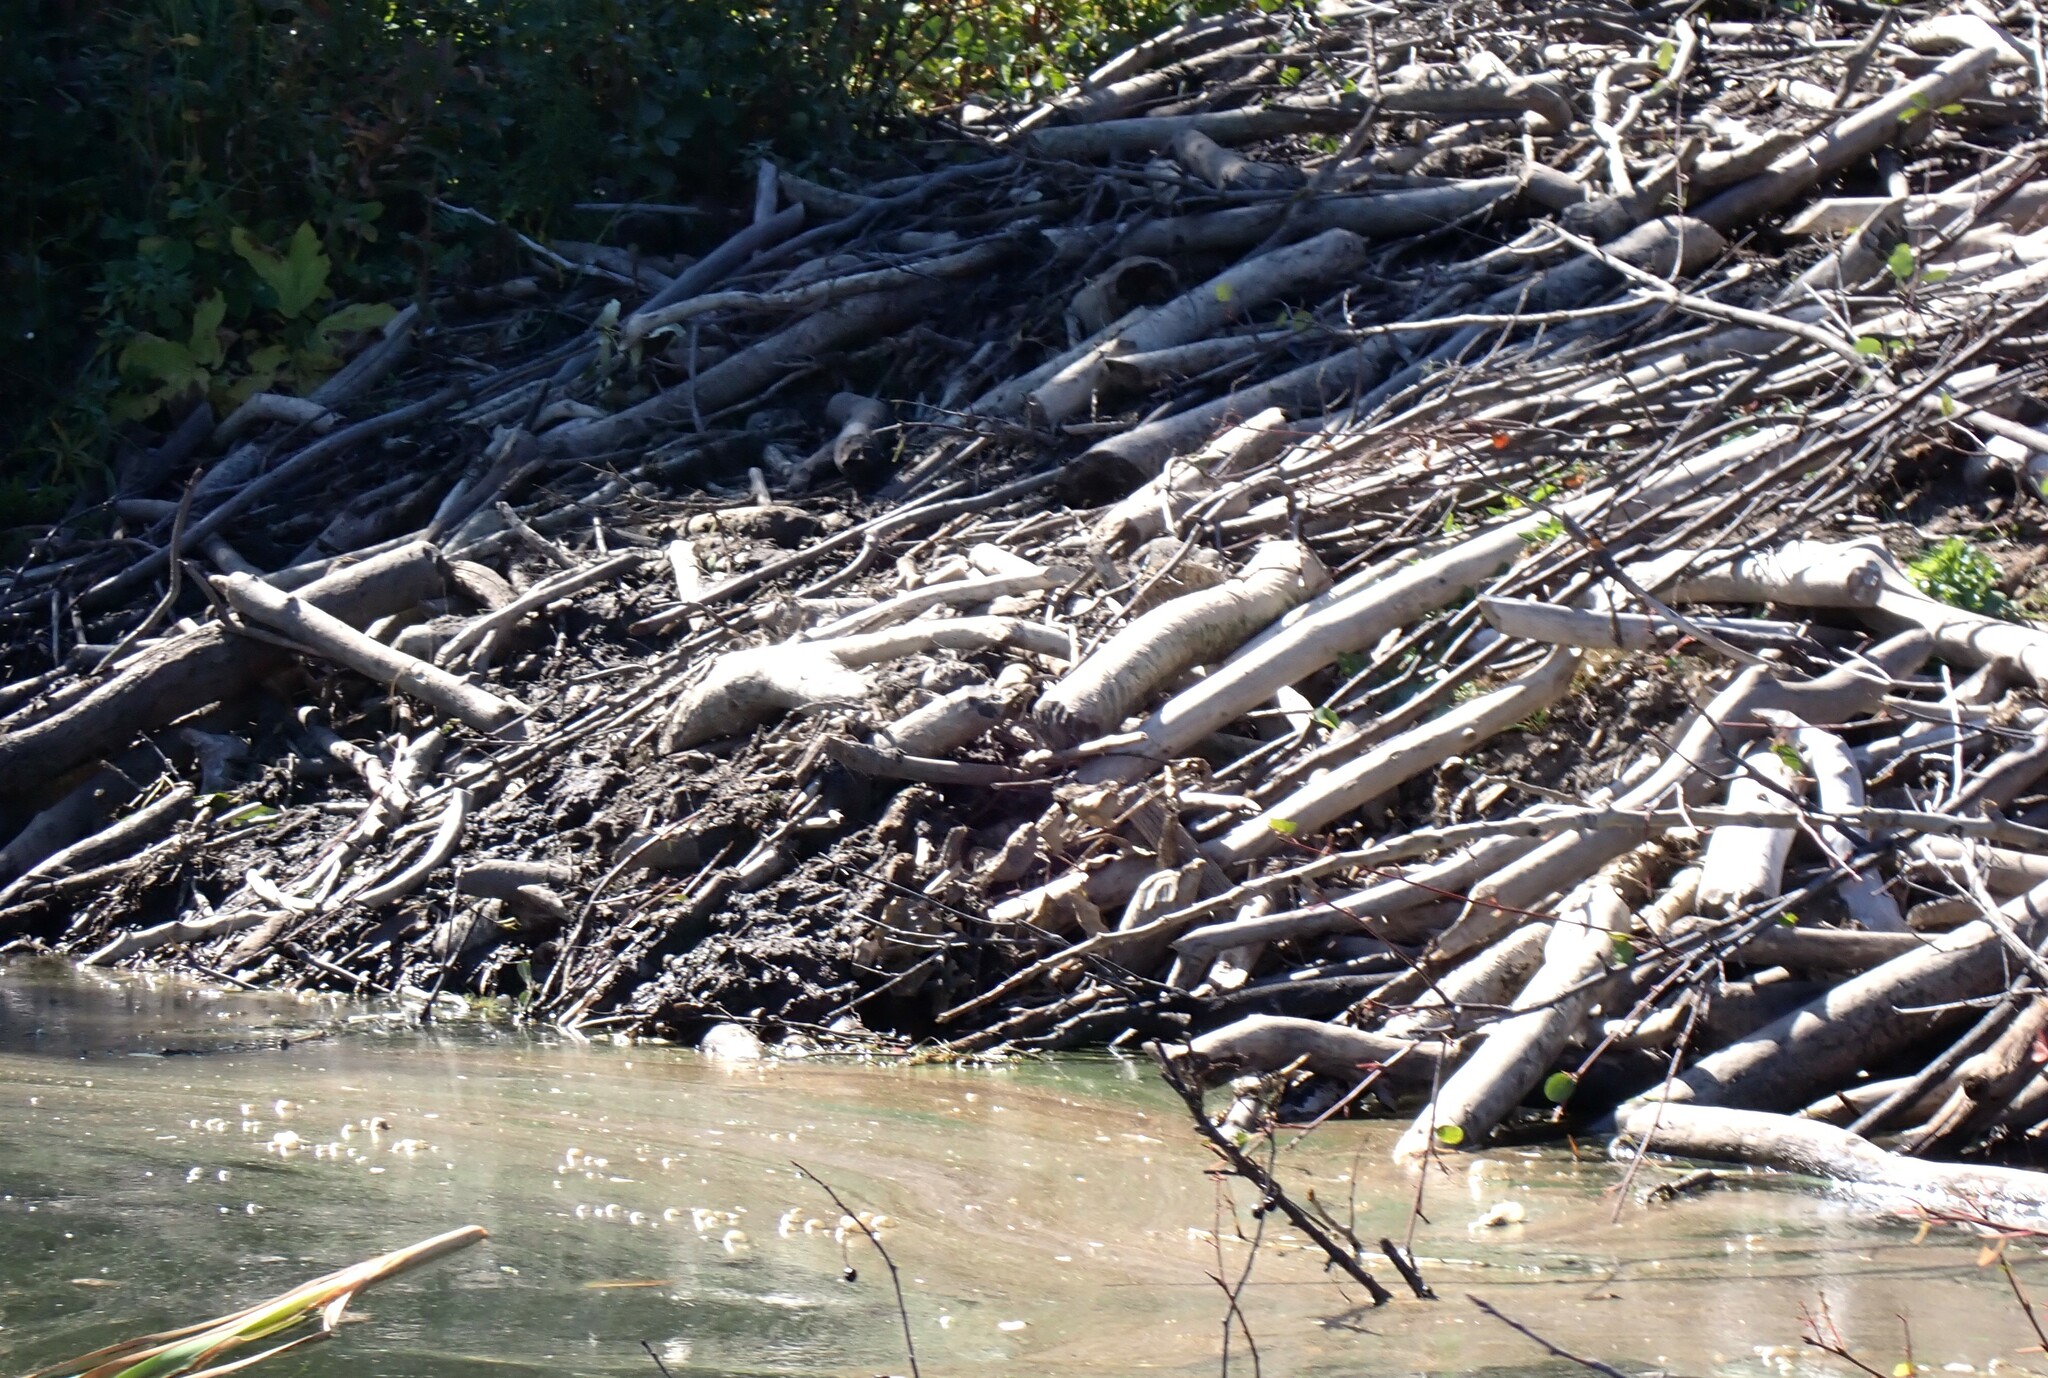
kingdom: Animalia
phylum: Chordata
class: Mammalia
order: Rodentia
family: Castoridae
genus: Castor
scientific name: Castor canadensis
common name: American beaver
